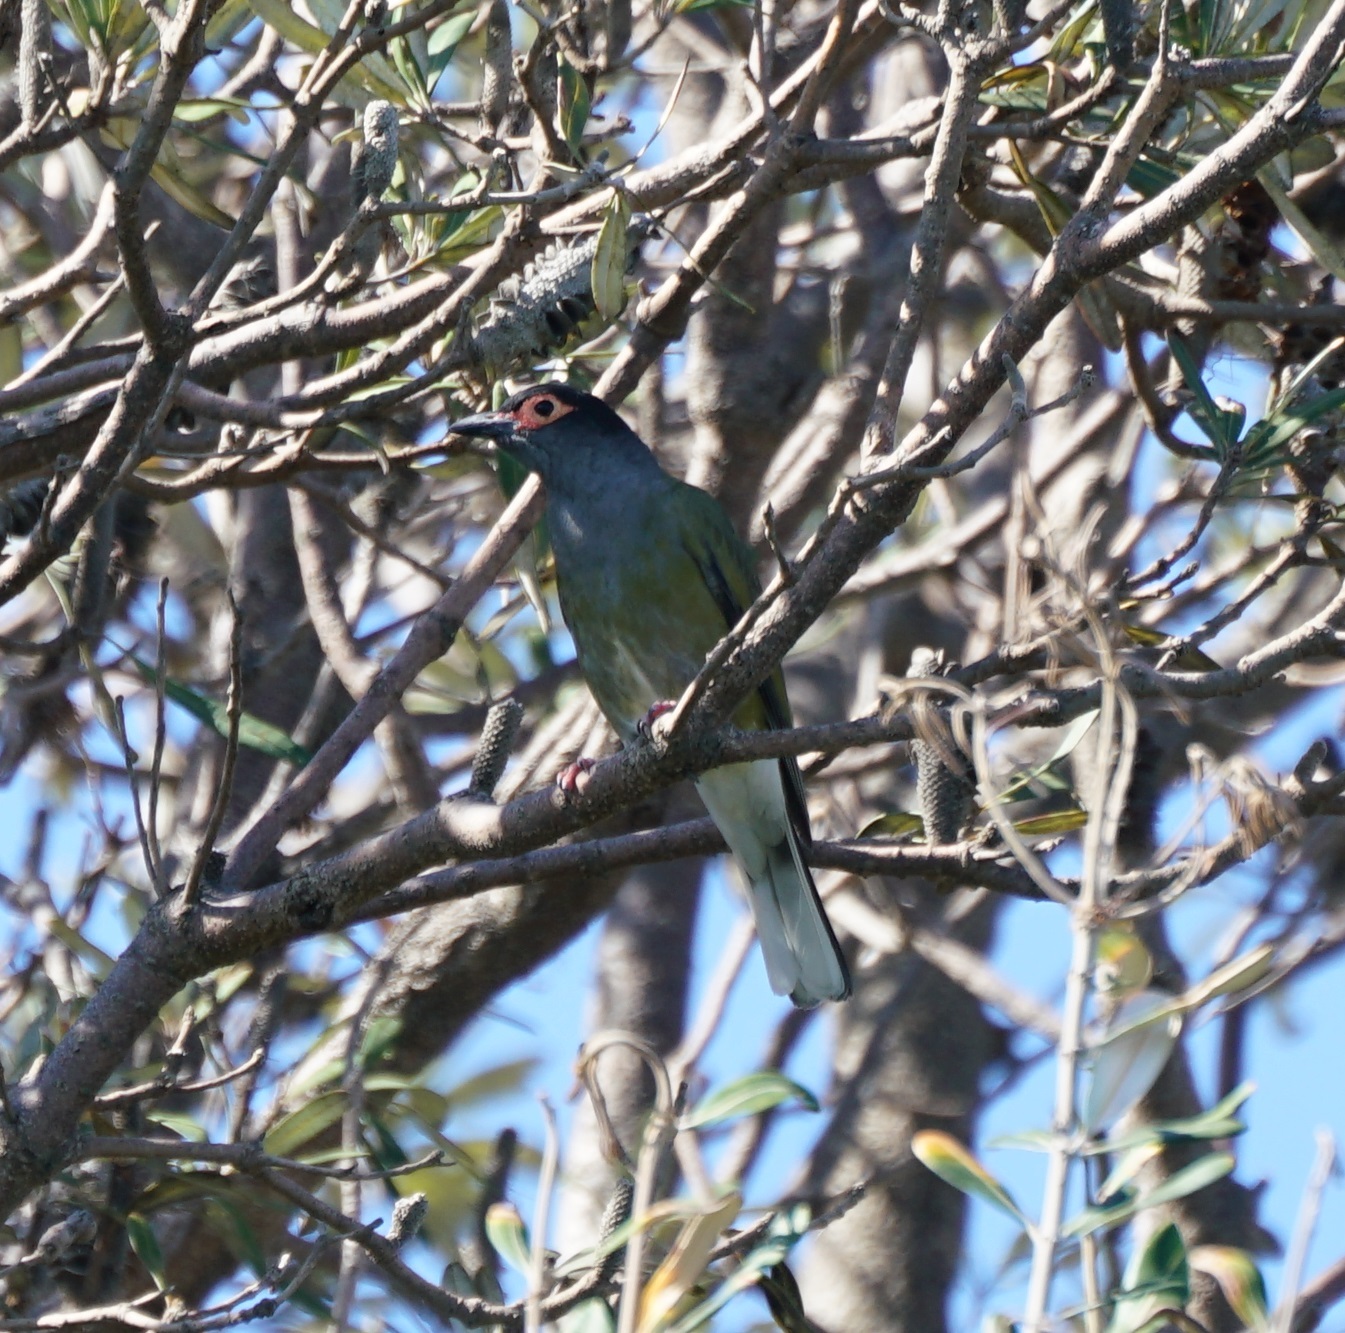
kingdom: Animalia
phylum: Chordata
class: Aves
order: Passeriformes
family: Oriolidae
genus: Sphecotheres
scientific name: Sphecotheres vieilloti
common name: Australasian figbird
